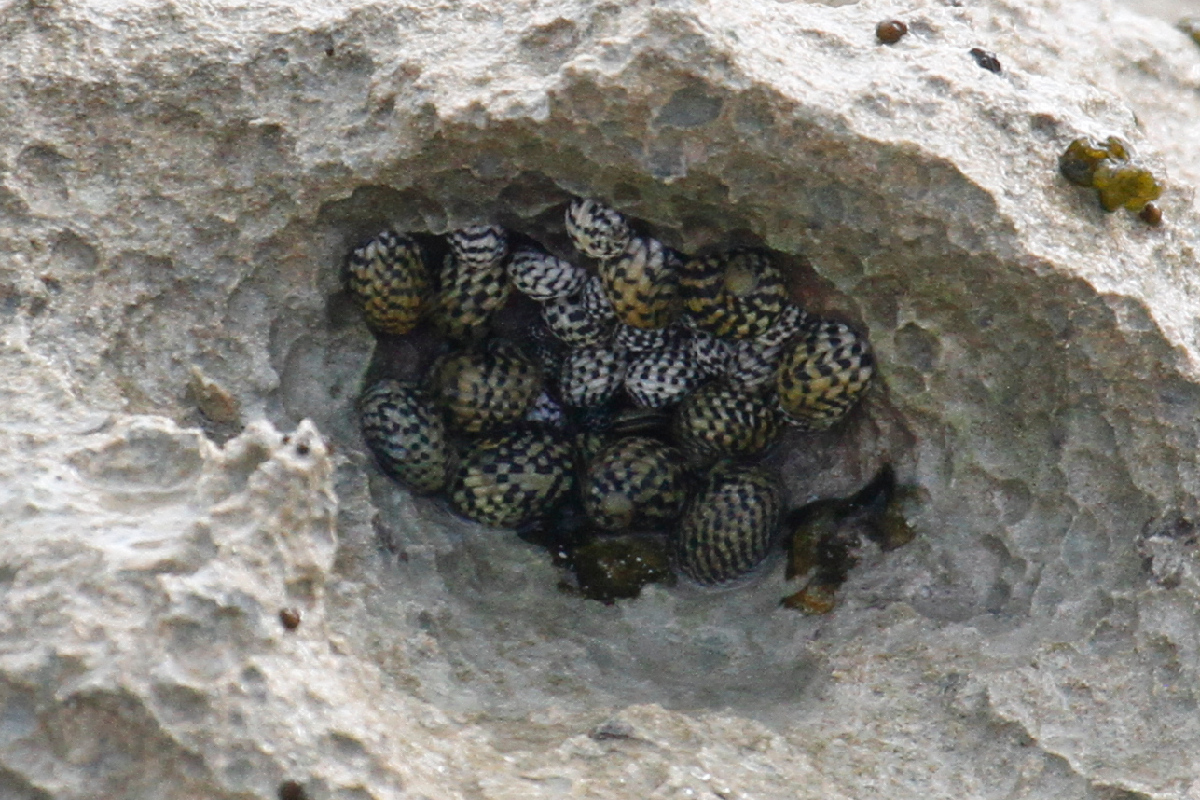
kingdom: Animalia
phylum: Mollusca
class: Gastropoda
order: Cycloneritida
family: Neritidae
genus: Nerita
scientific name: Nerita tessellata
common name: Checkered nerite
